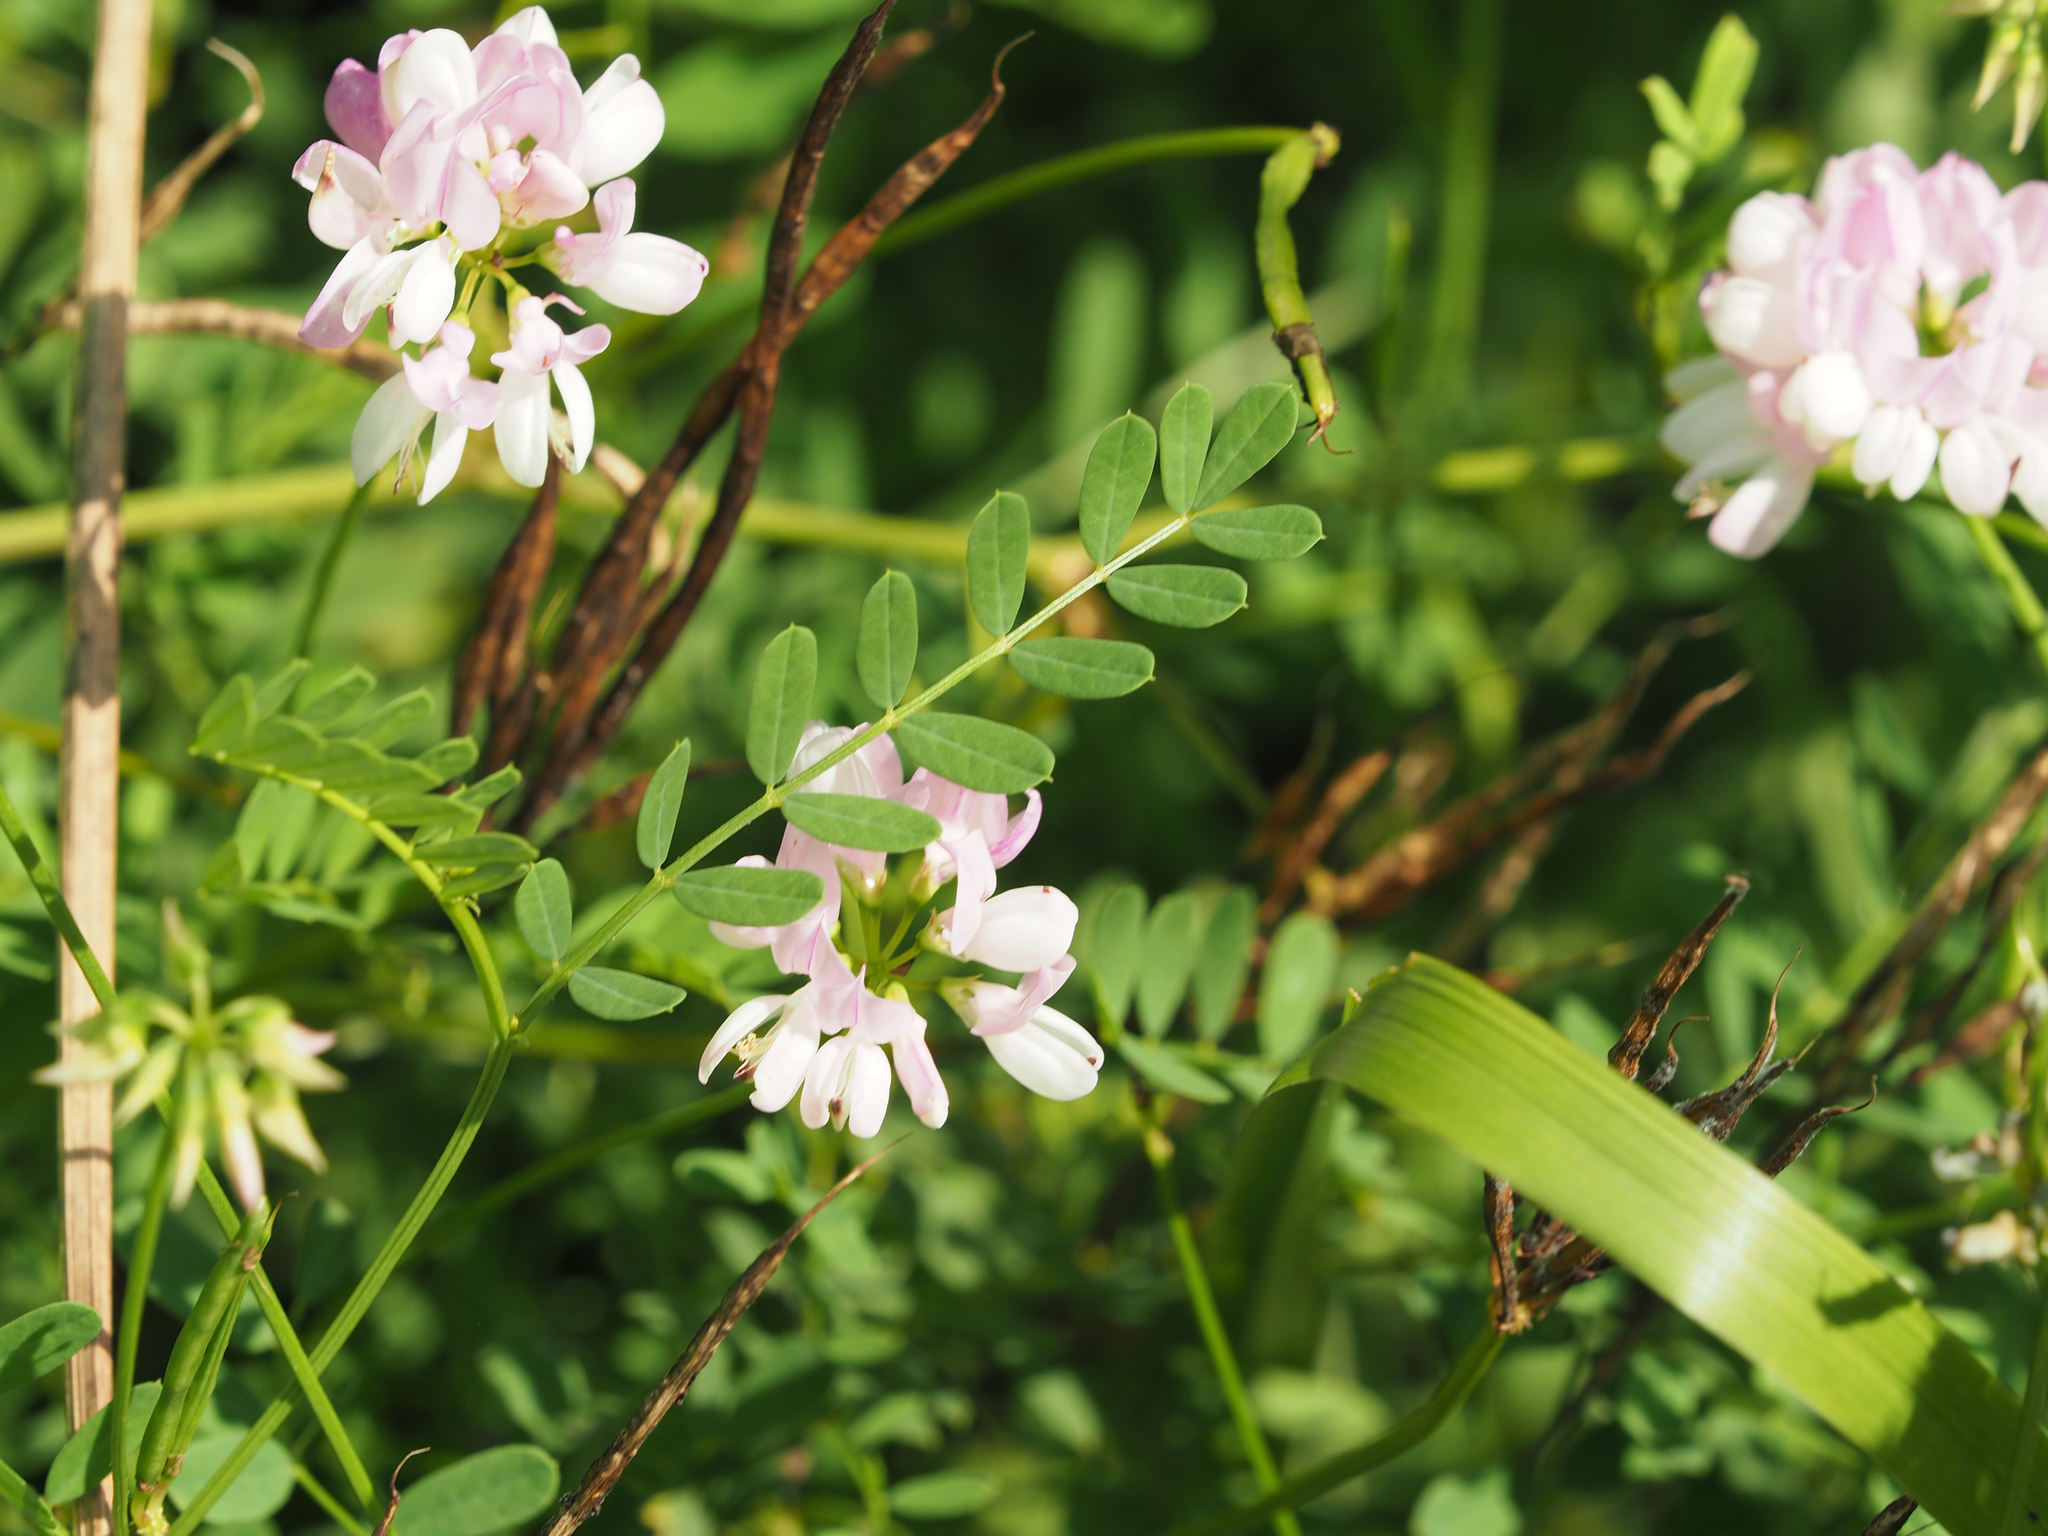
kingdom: Plantae
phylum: Tracheophyta
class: Magnoliopsida
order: Fabales
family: Fabaceae
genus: Coronilla
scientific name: Coronilla varia
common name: Crownvetch
